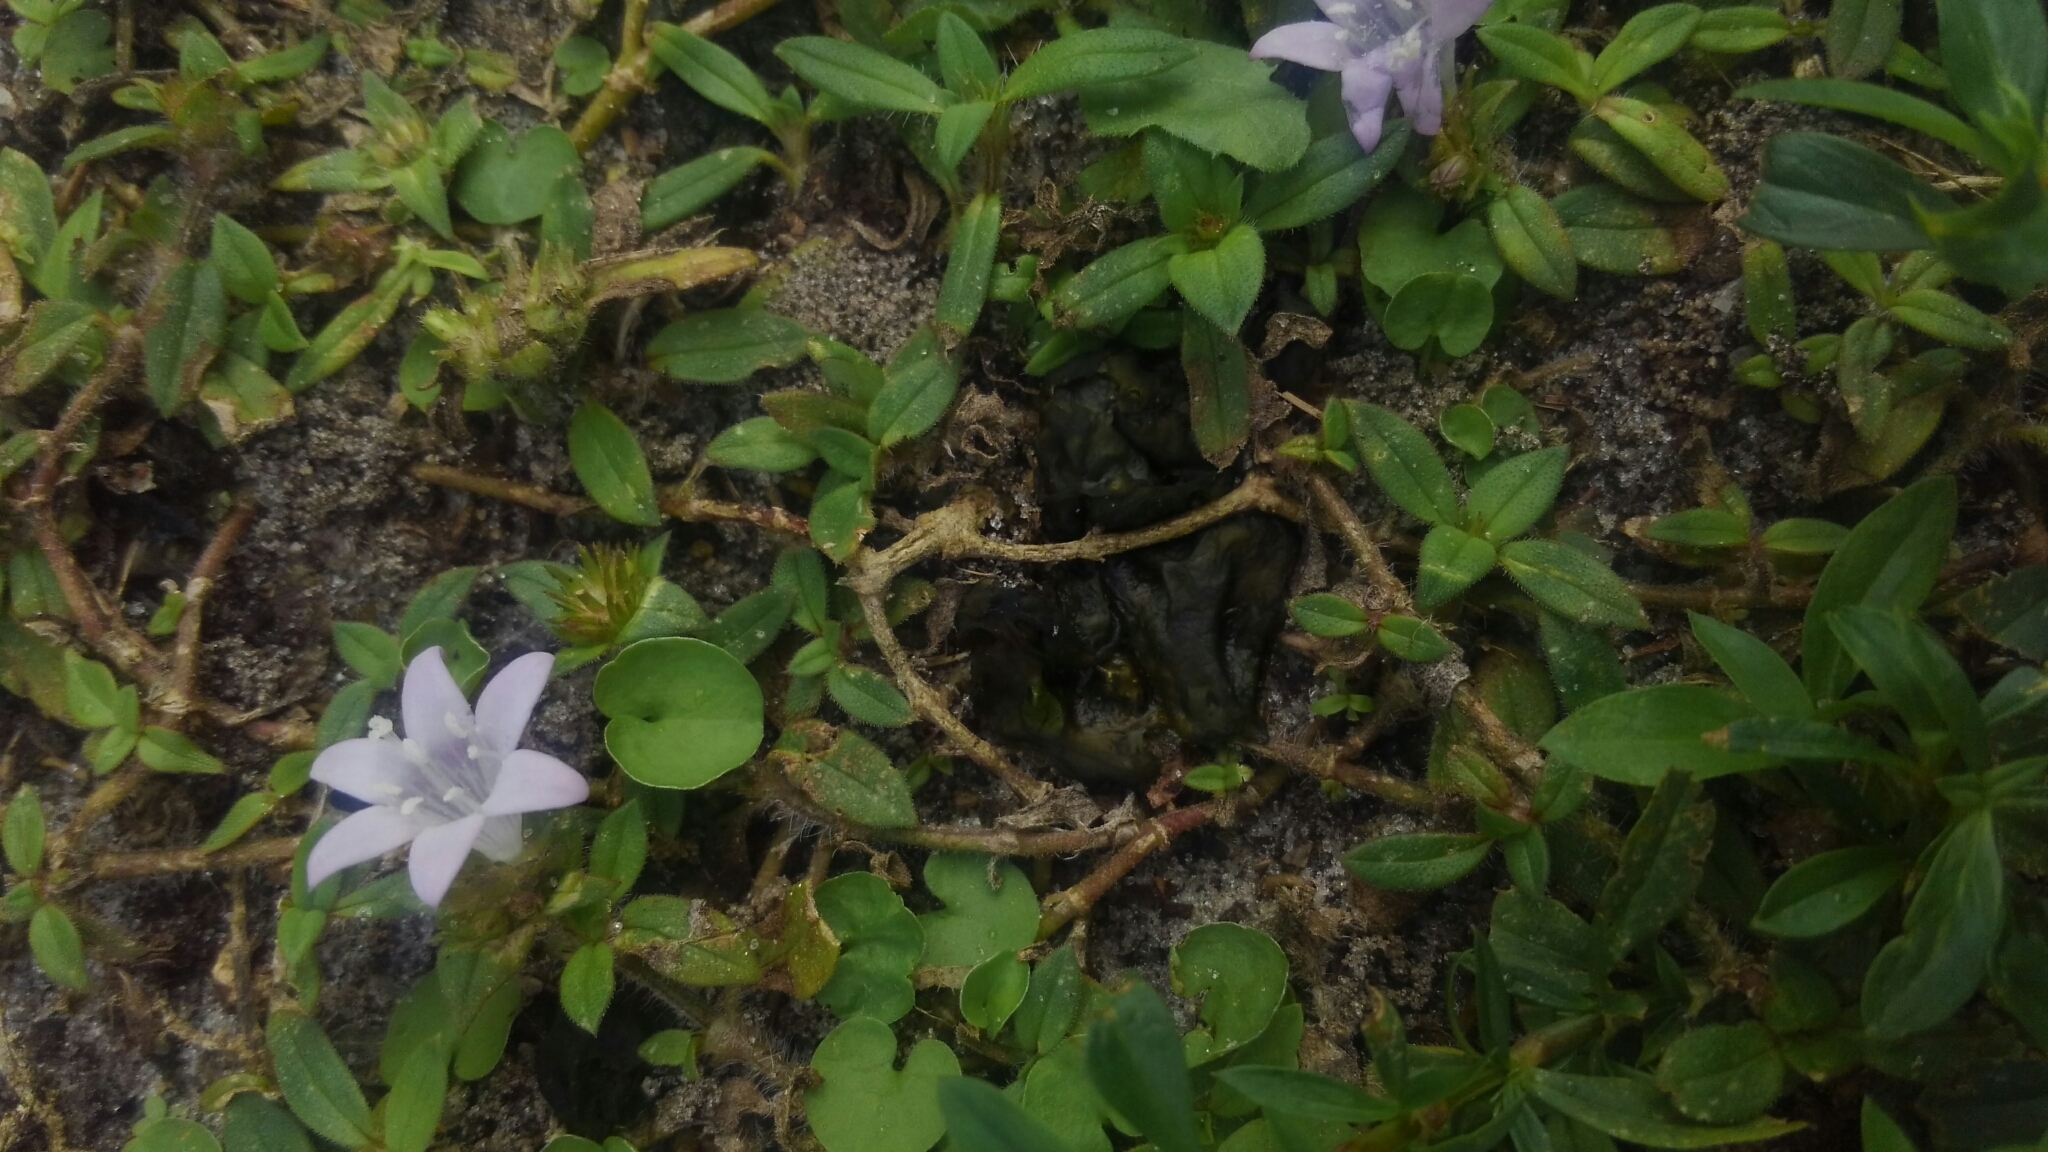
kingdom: Bacteria
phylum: Cyanobacteria
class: Cyanobacteriia
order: Cyanobacteriales
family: Nostocaceae
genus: Nostoc
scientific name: Nostoc commune
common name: Star jelly
